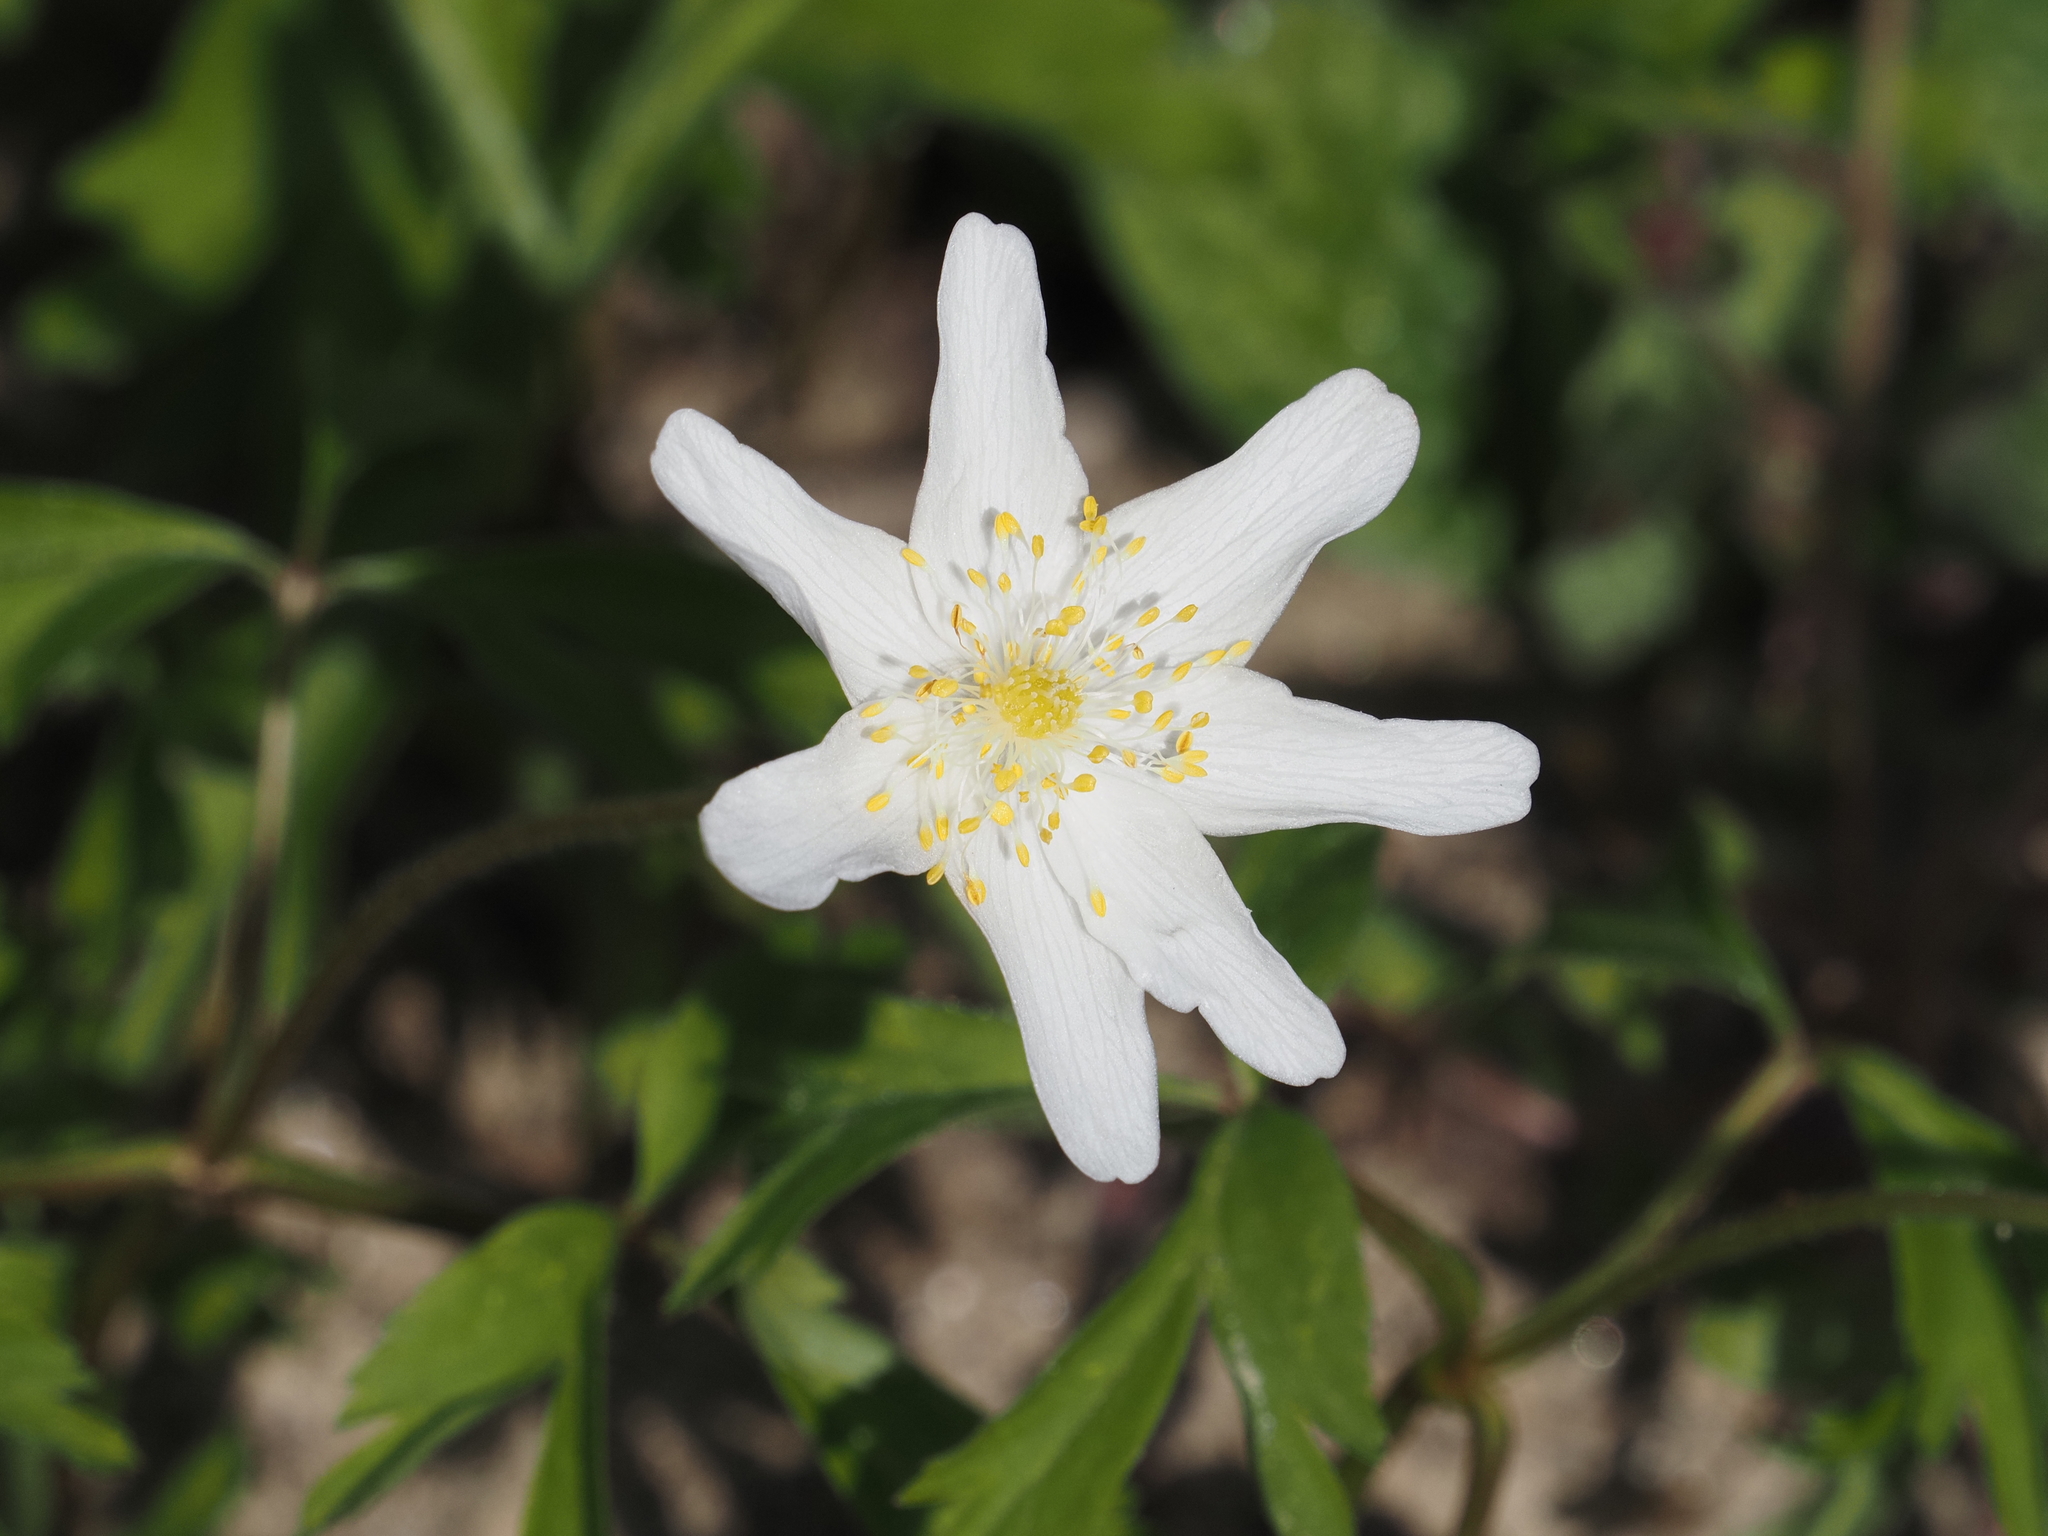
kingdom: Plantae
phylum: Tracheophyta
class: Magnoliopsida
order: Ranunculales
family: Ranunculaceae
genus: Anemone
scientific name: Anemone nemorosa
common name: Wood anemone
